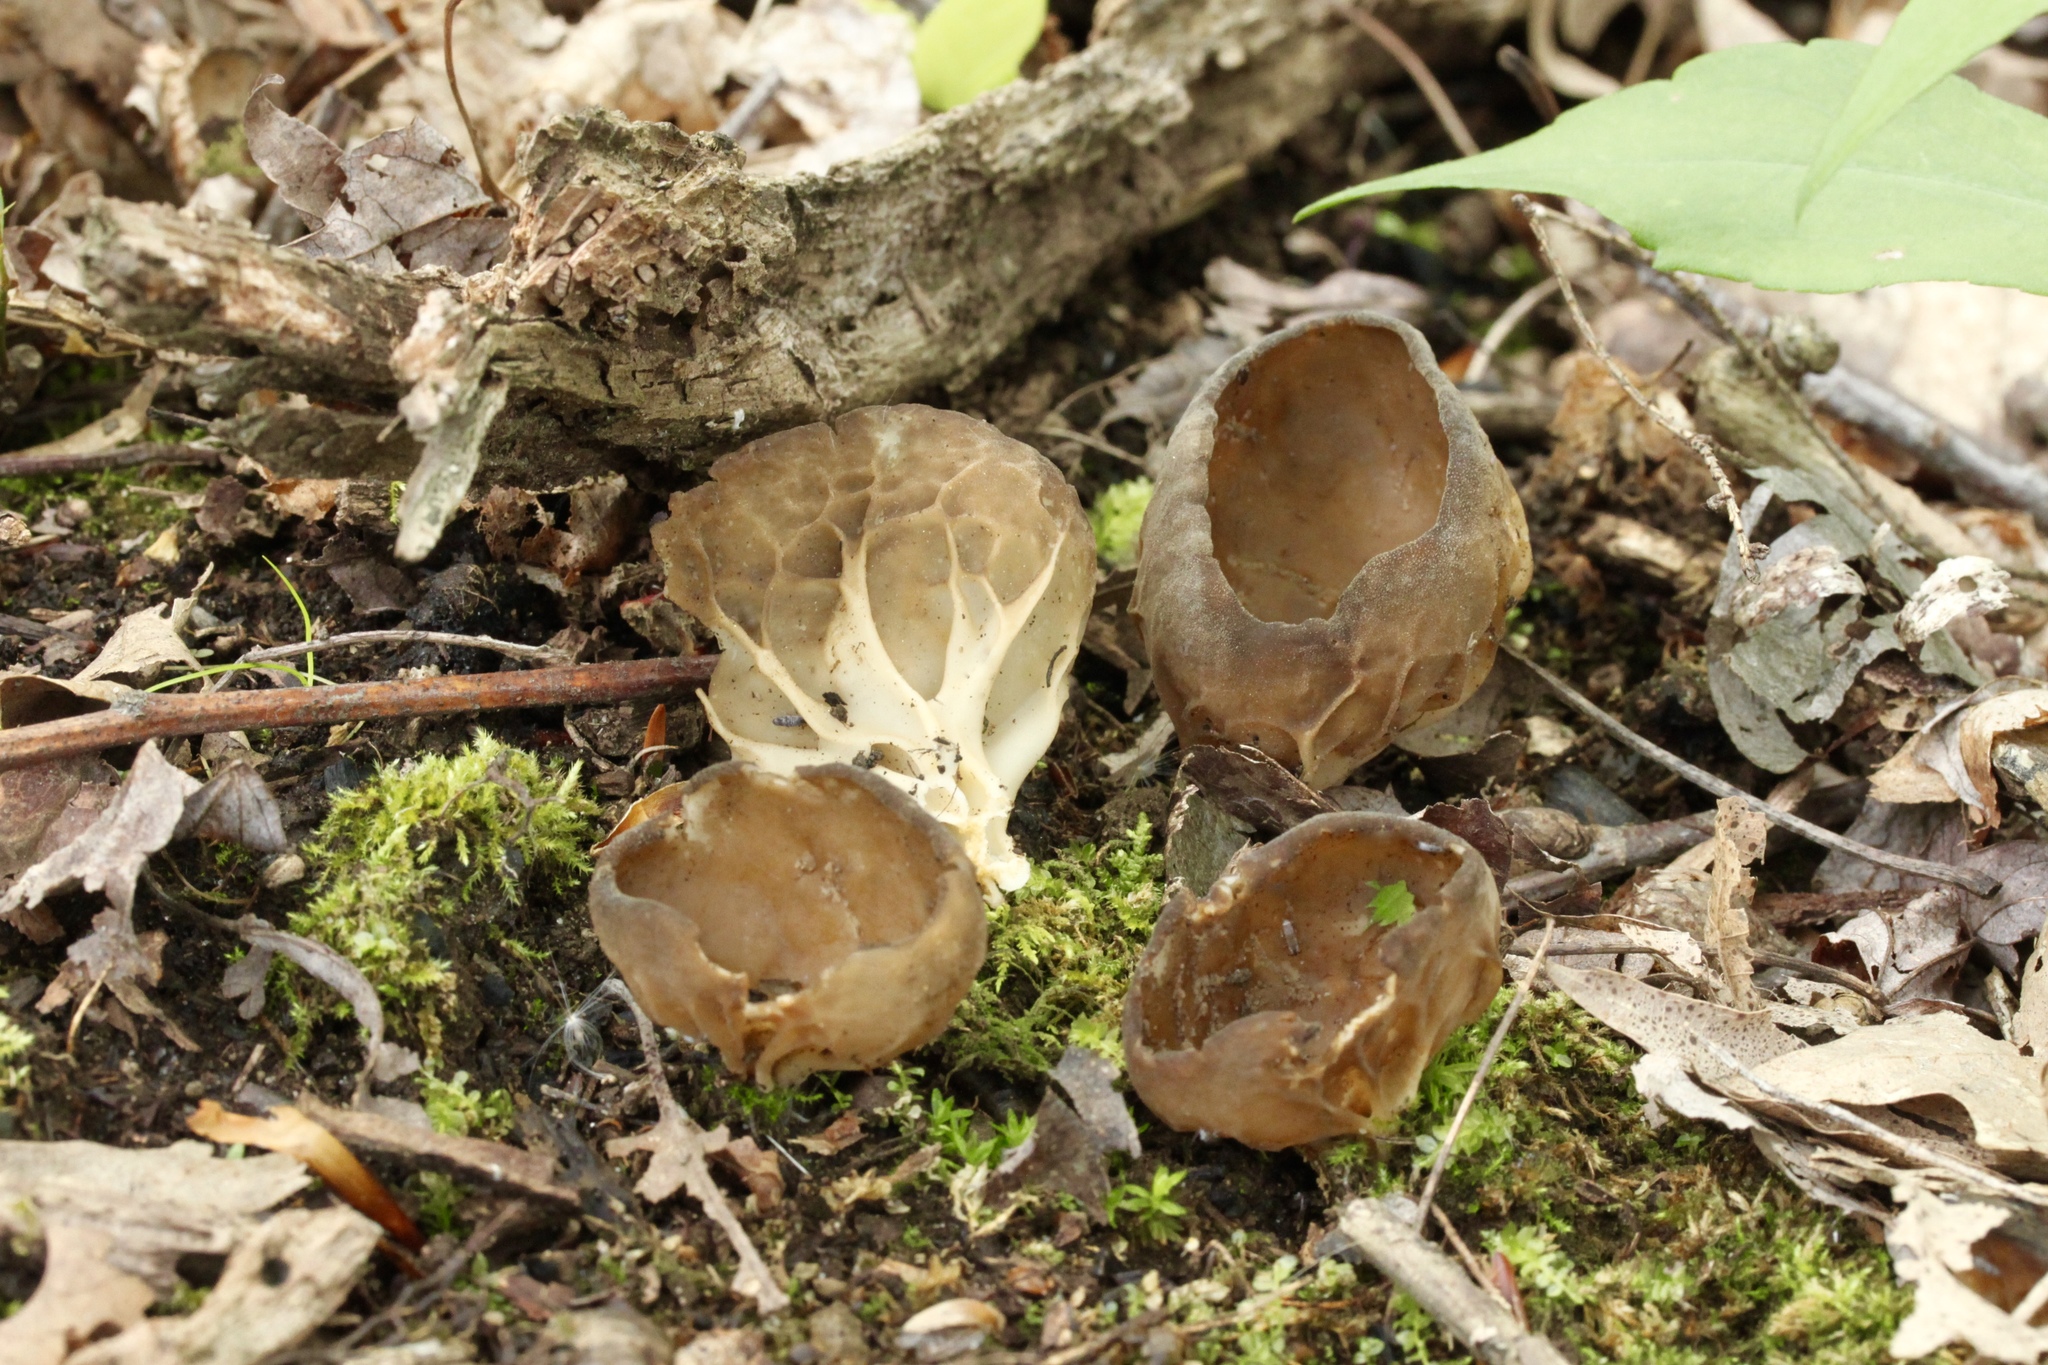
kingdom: Fungi
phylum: Ascomycota
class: Pezizomycetes
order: Pezizales
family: Helvellaceae
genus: Helvella
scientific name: Helvella acetabulum
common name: Vinegar cup
